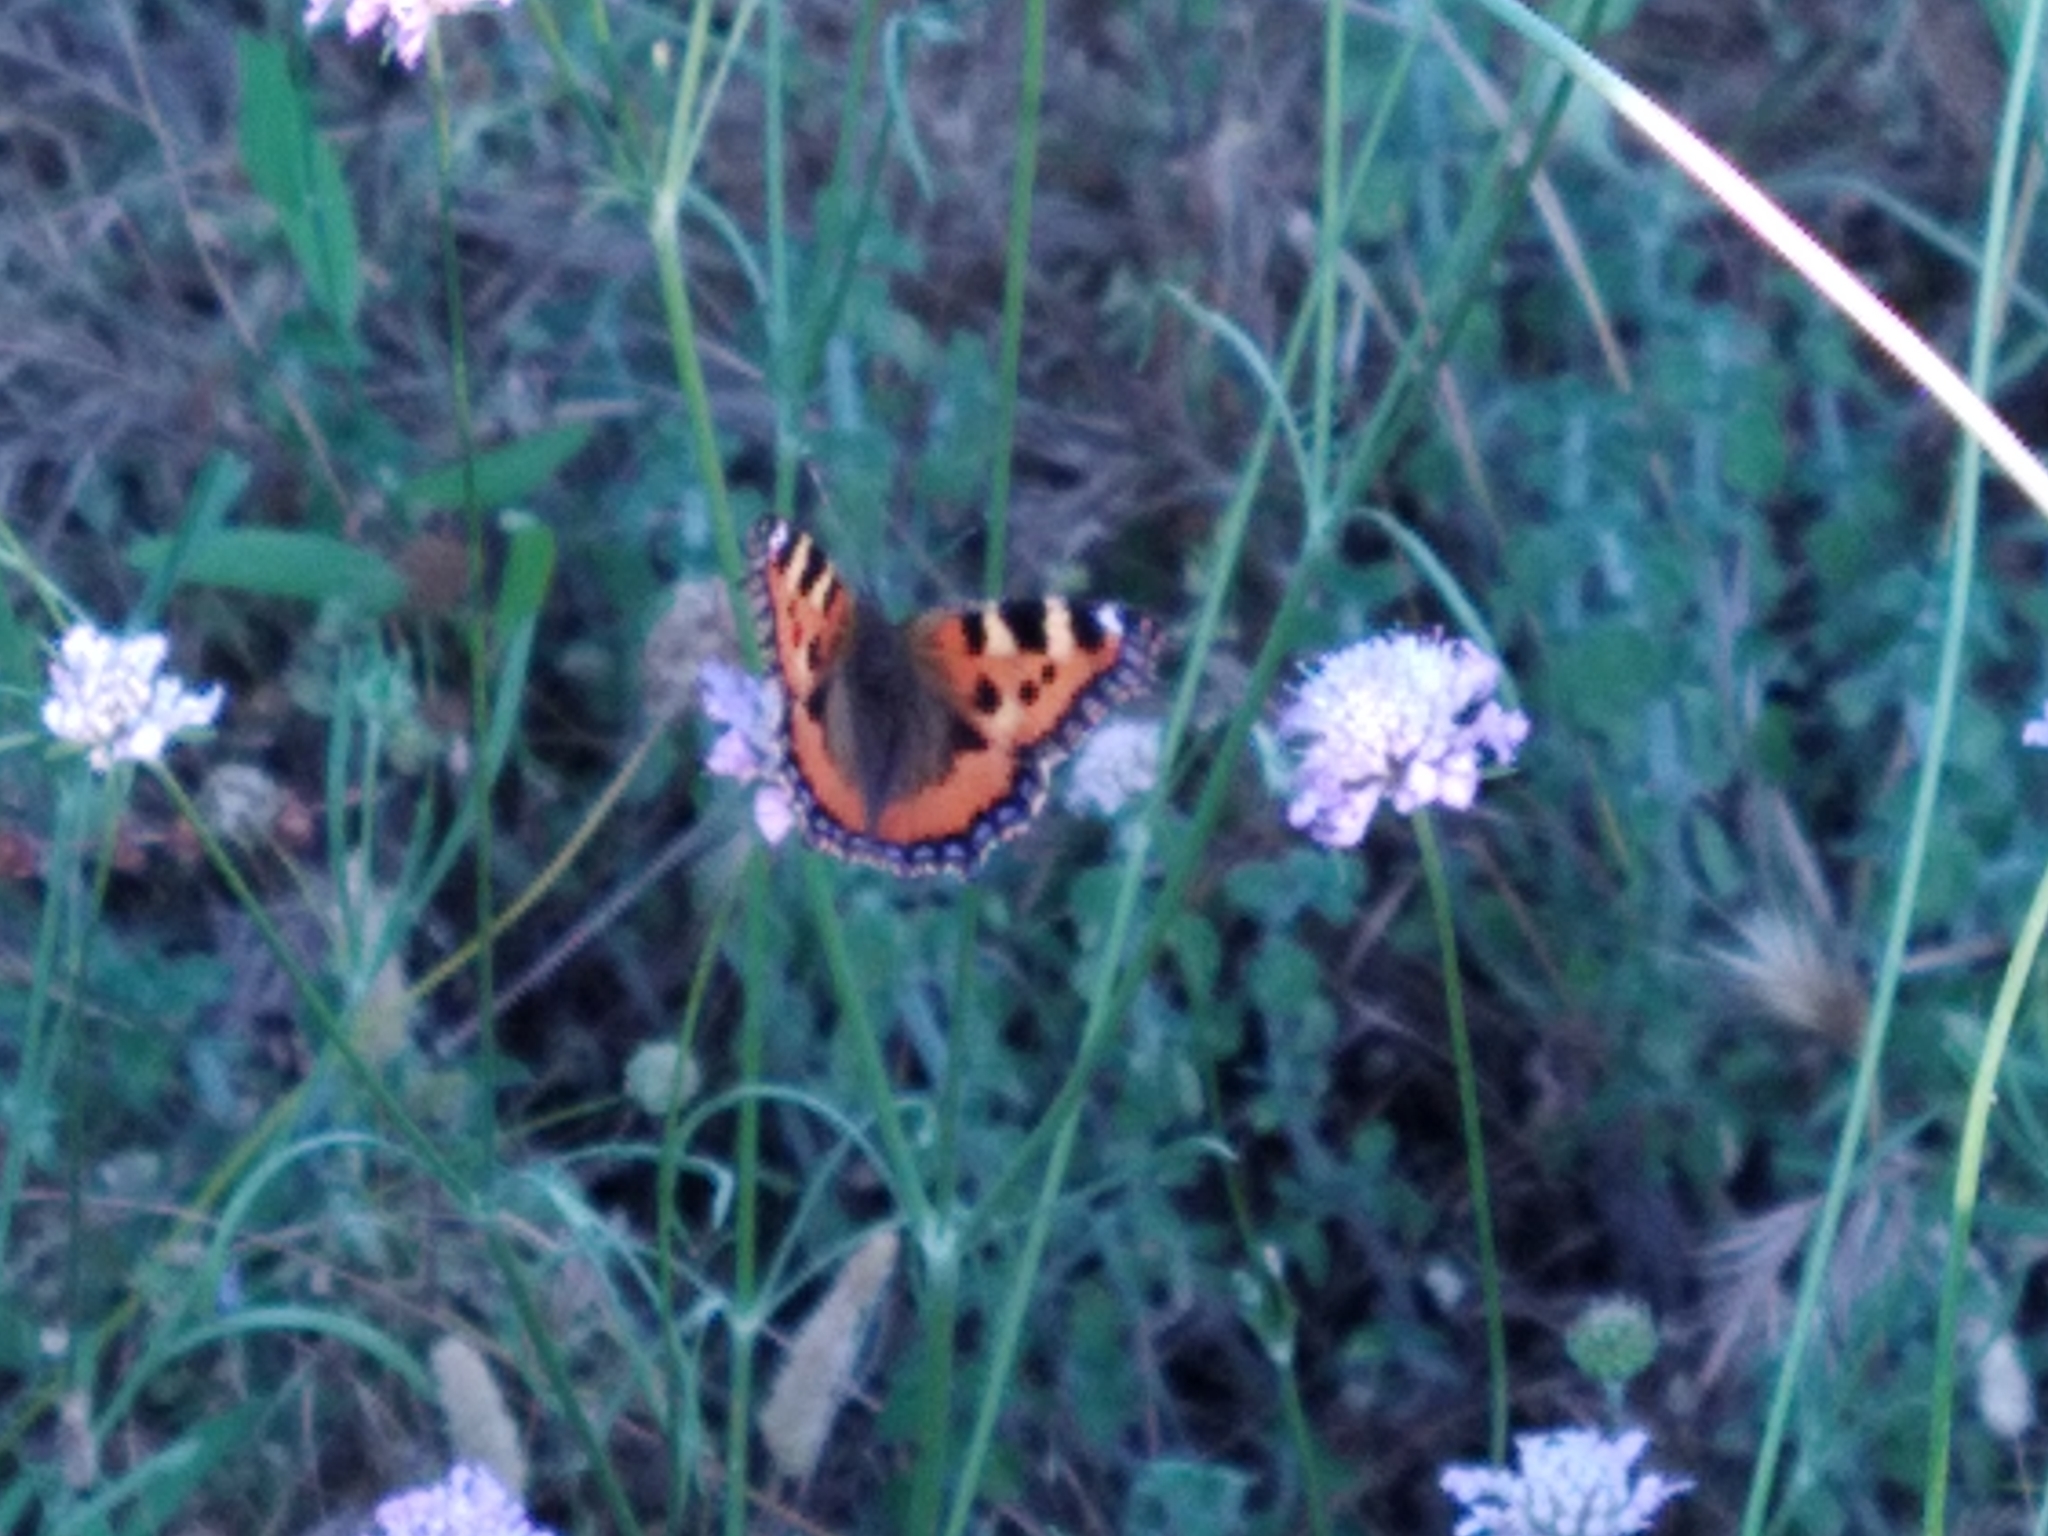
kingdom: Animalia
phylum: Arthropoda
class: Insecta
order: Lepidoptera
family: Nymphalidae
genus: Aglais
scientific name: Aglais urticae
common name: Small tortoiseshell
